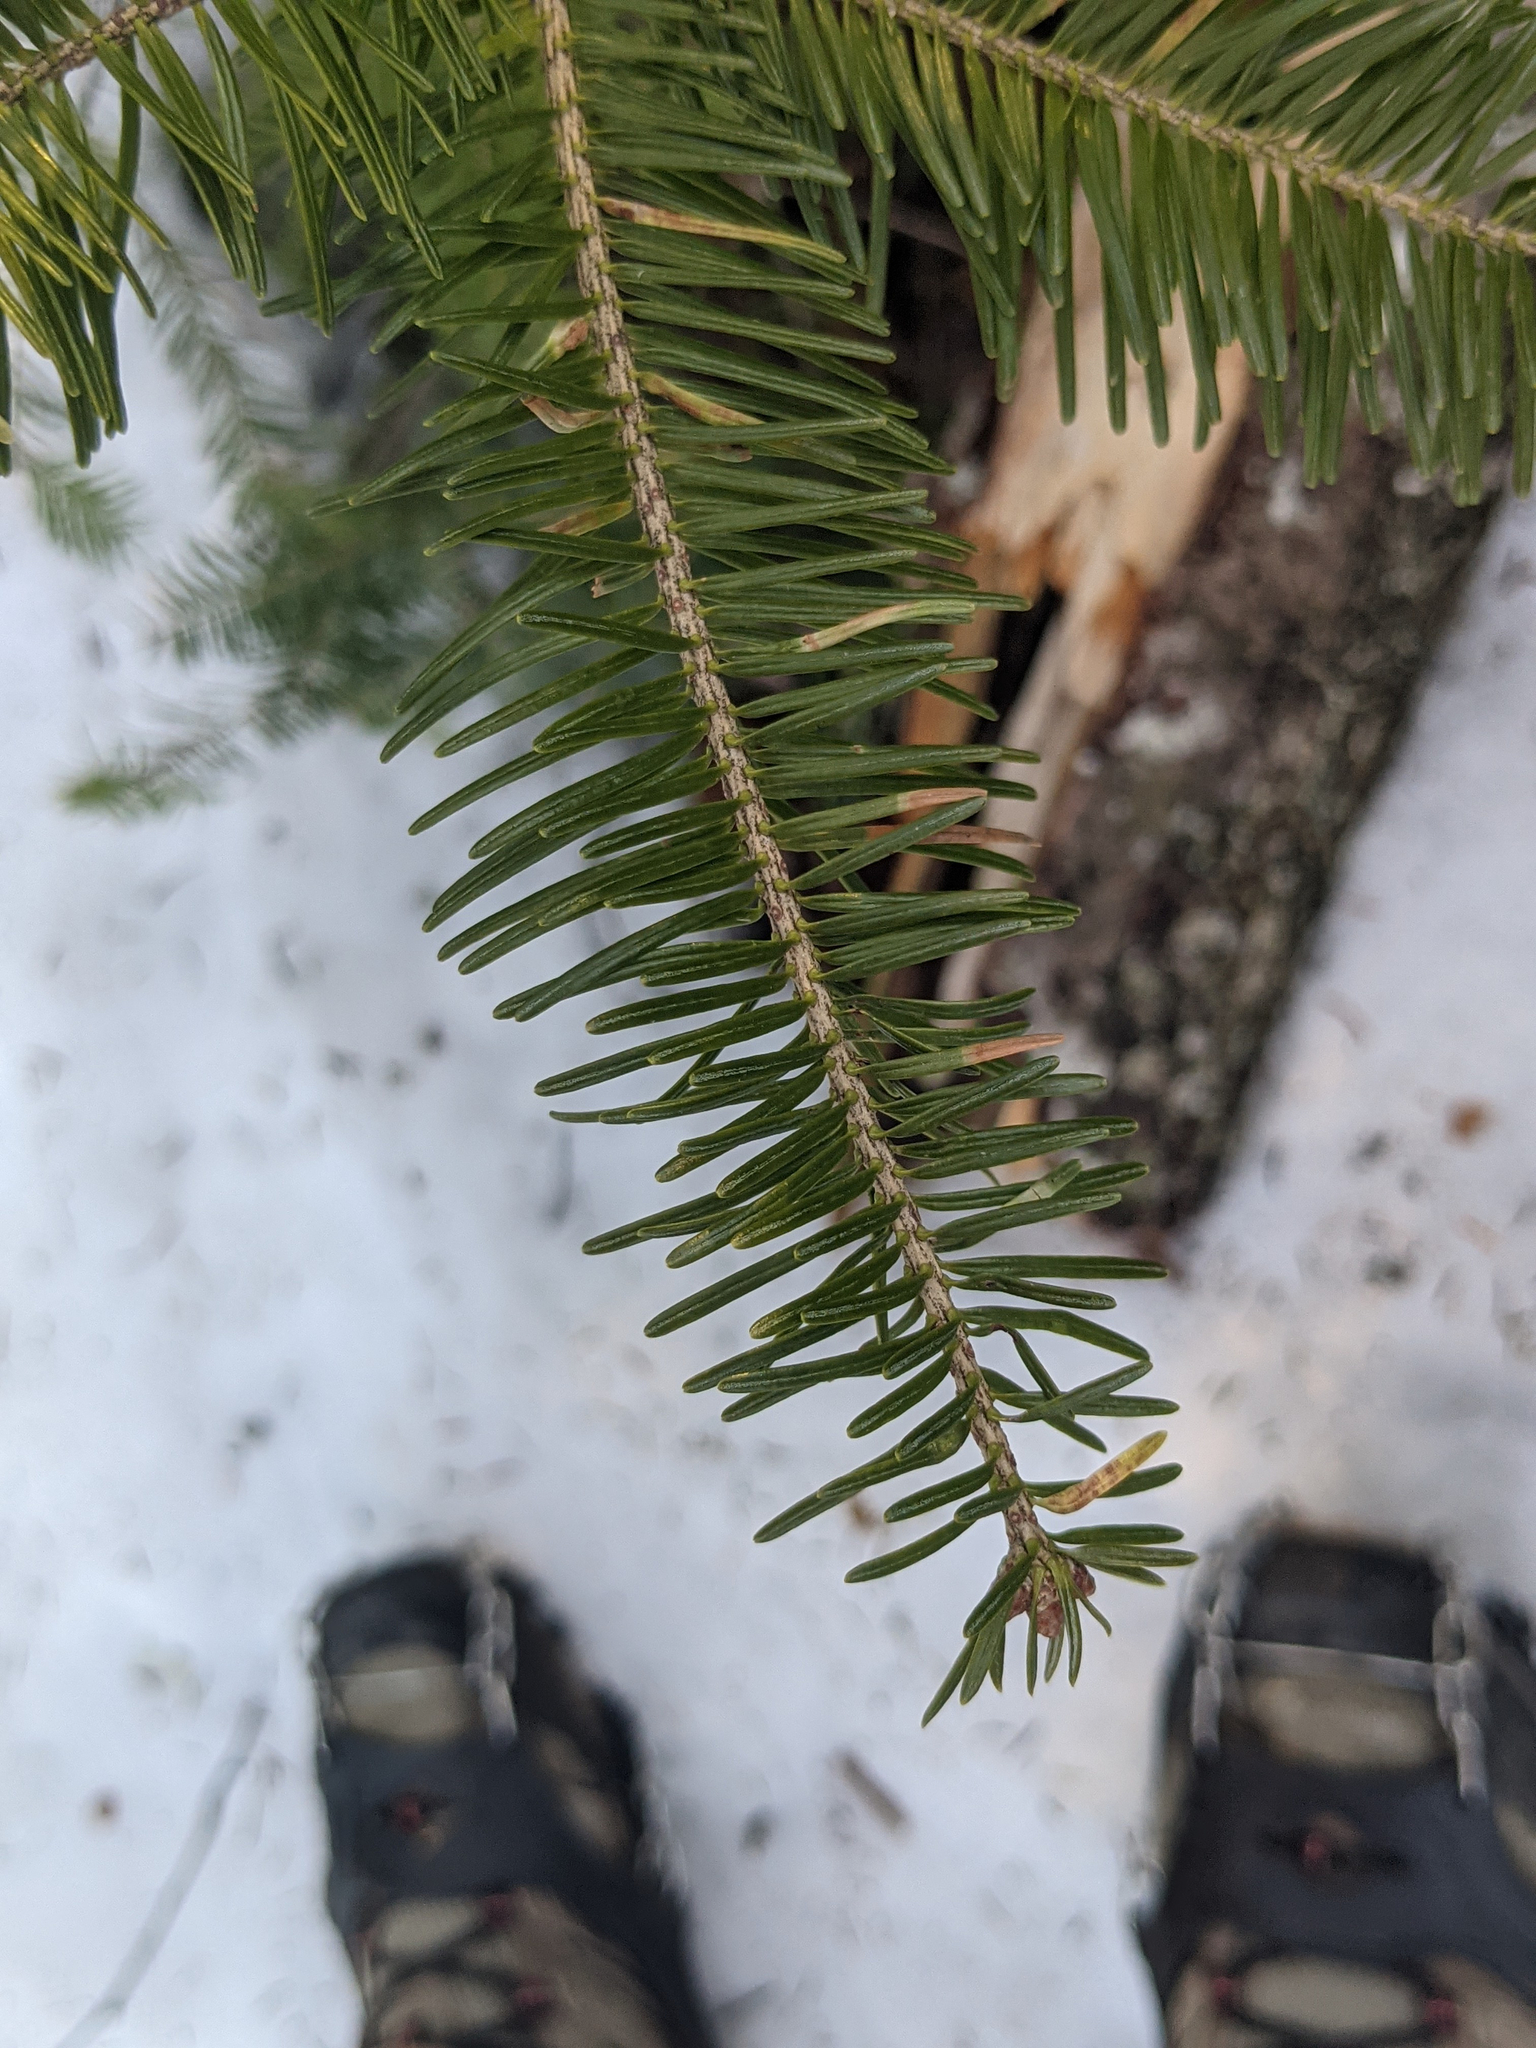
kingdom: Plantae
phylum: Tracheophyta
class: Pinopsida
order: Pinales
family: Pinaceae
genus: Abies
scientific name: Abies balsamea
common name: Balsam fir
